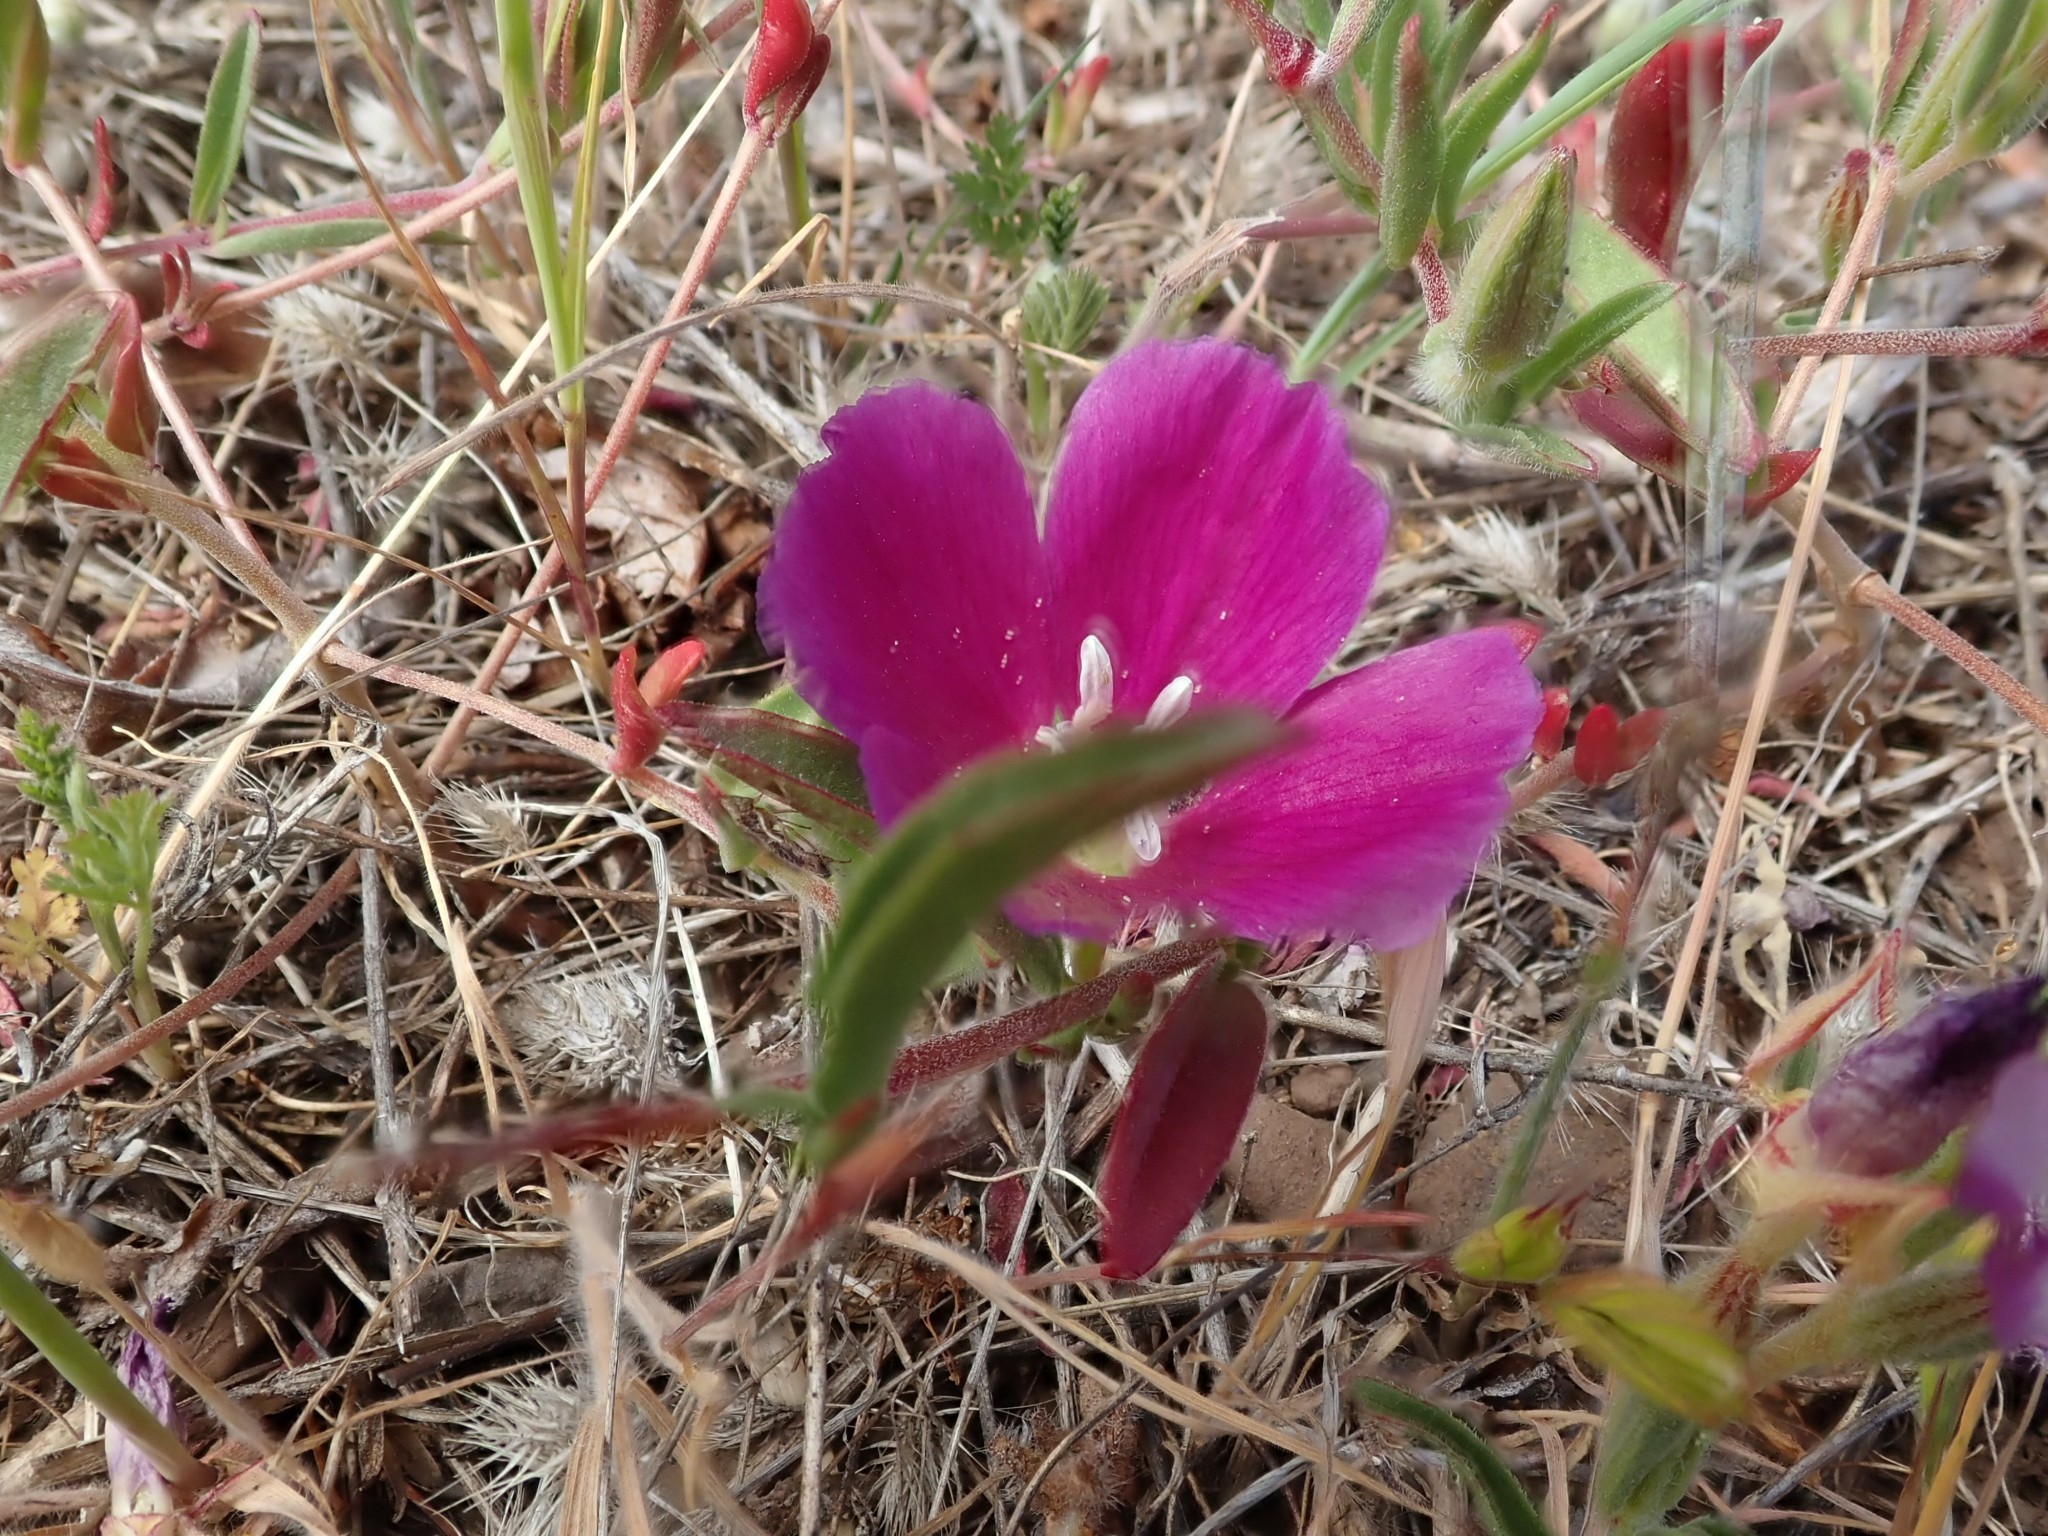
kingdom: Plantae
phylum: Tracheophyta
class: Magnoliopsida
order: Myrtales
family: Onagraceae
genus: Clarkia
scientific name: Clarkia purpurea
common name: Purple clarkia
